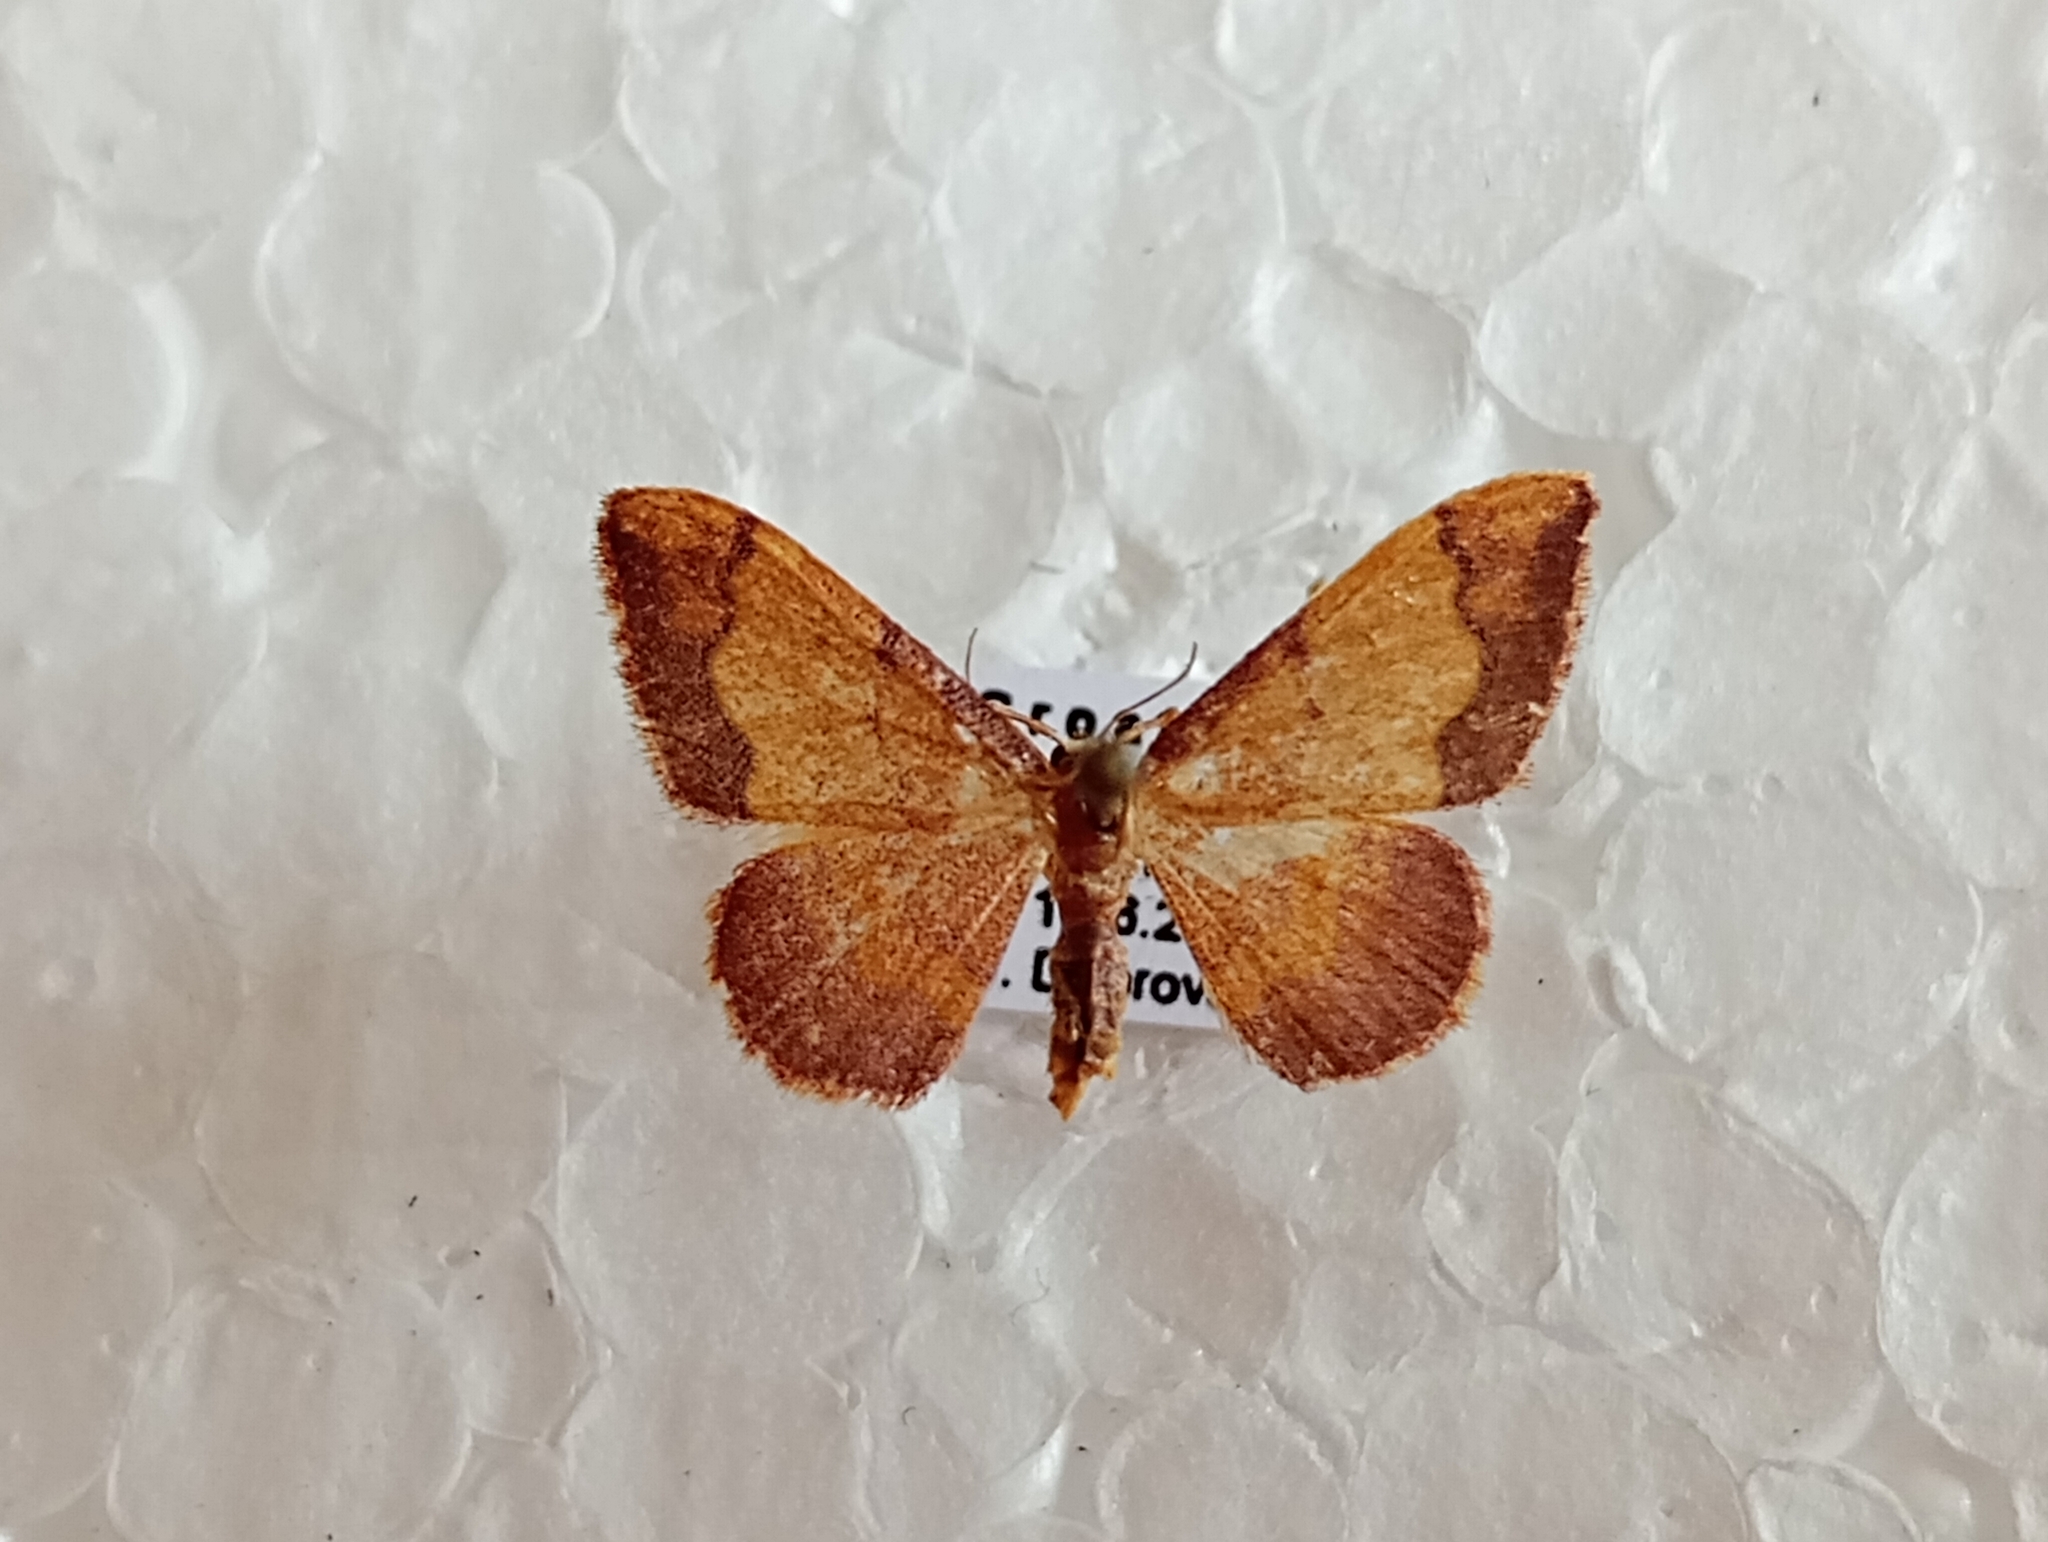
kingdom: Animalia
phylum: Arthropoda
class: Insecta
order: Lepidoptera
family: Geometridae
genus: Idaea
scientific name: Idaea ostrinaria
